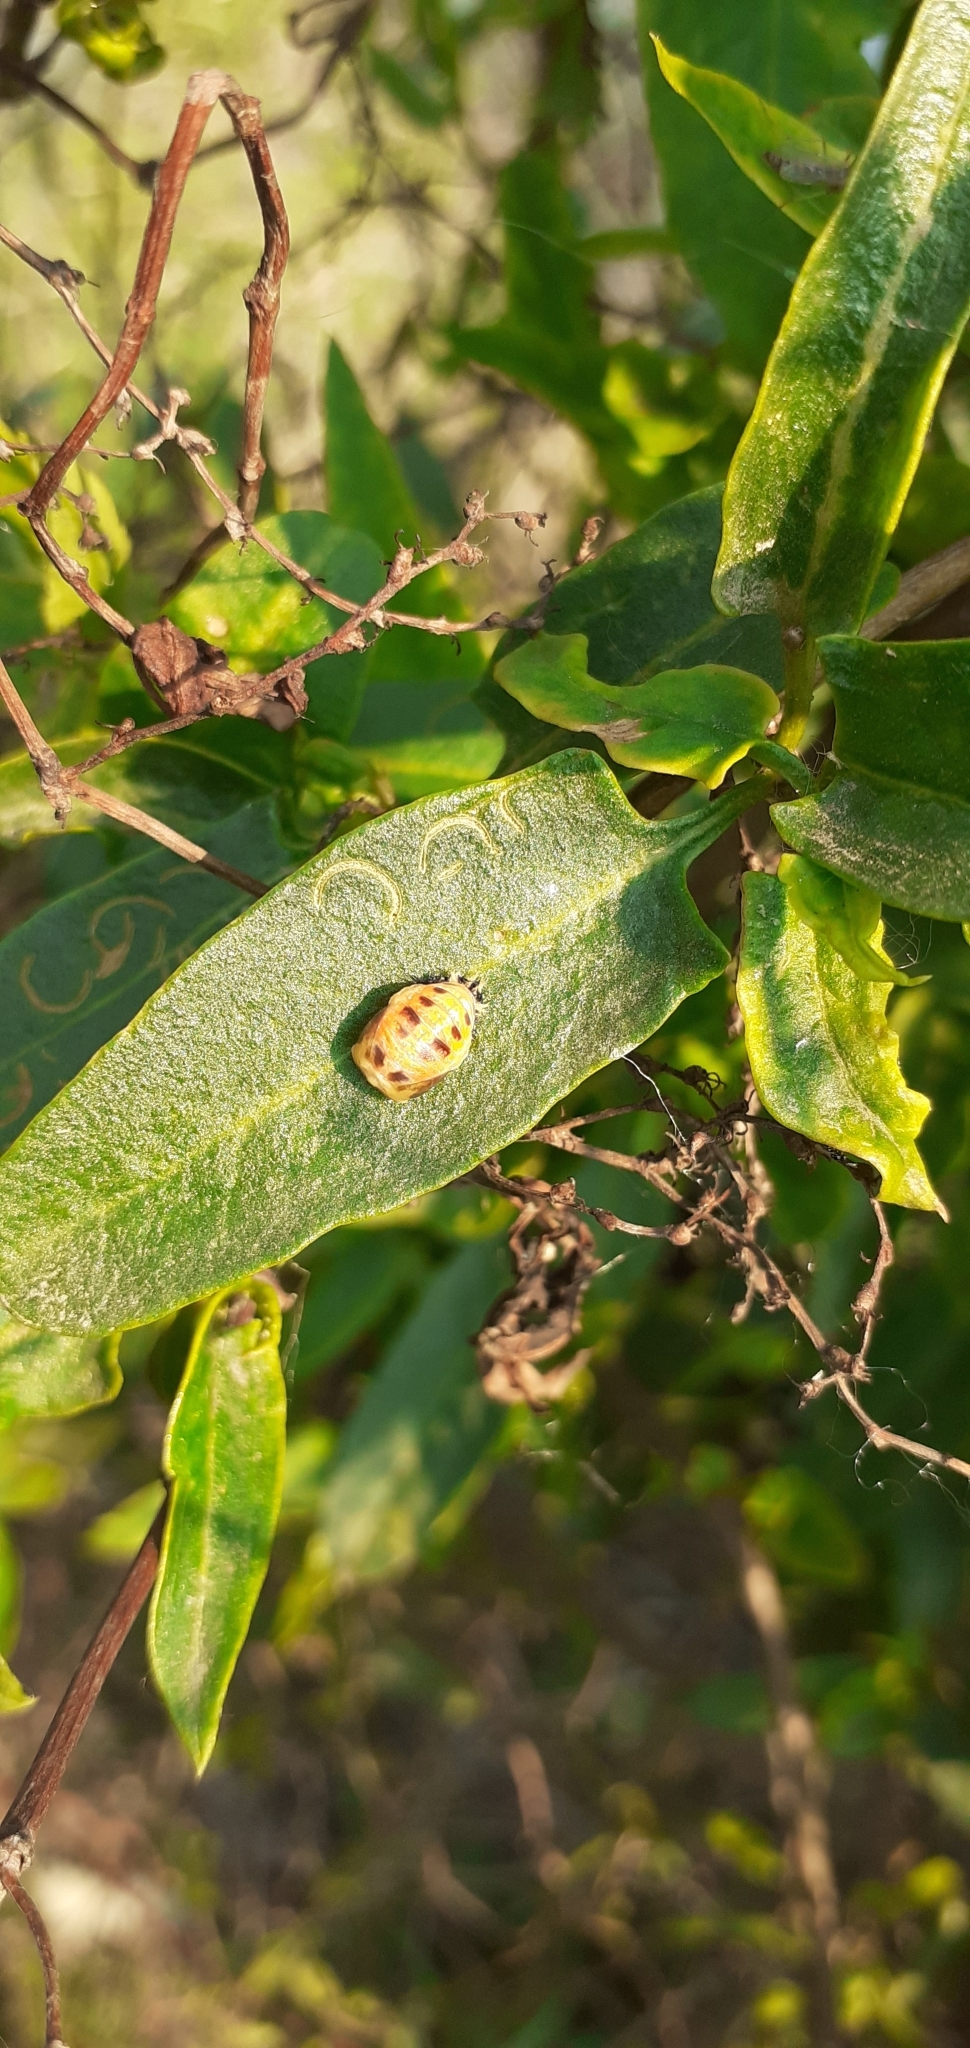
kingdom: Animalia
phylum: Arthropoda
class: Insecta
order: Coleoptera
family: Coccinellidae
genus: Harmonia
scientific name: Harmonia axyridis
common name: Harlequin ladybird
